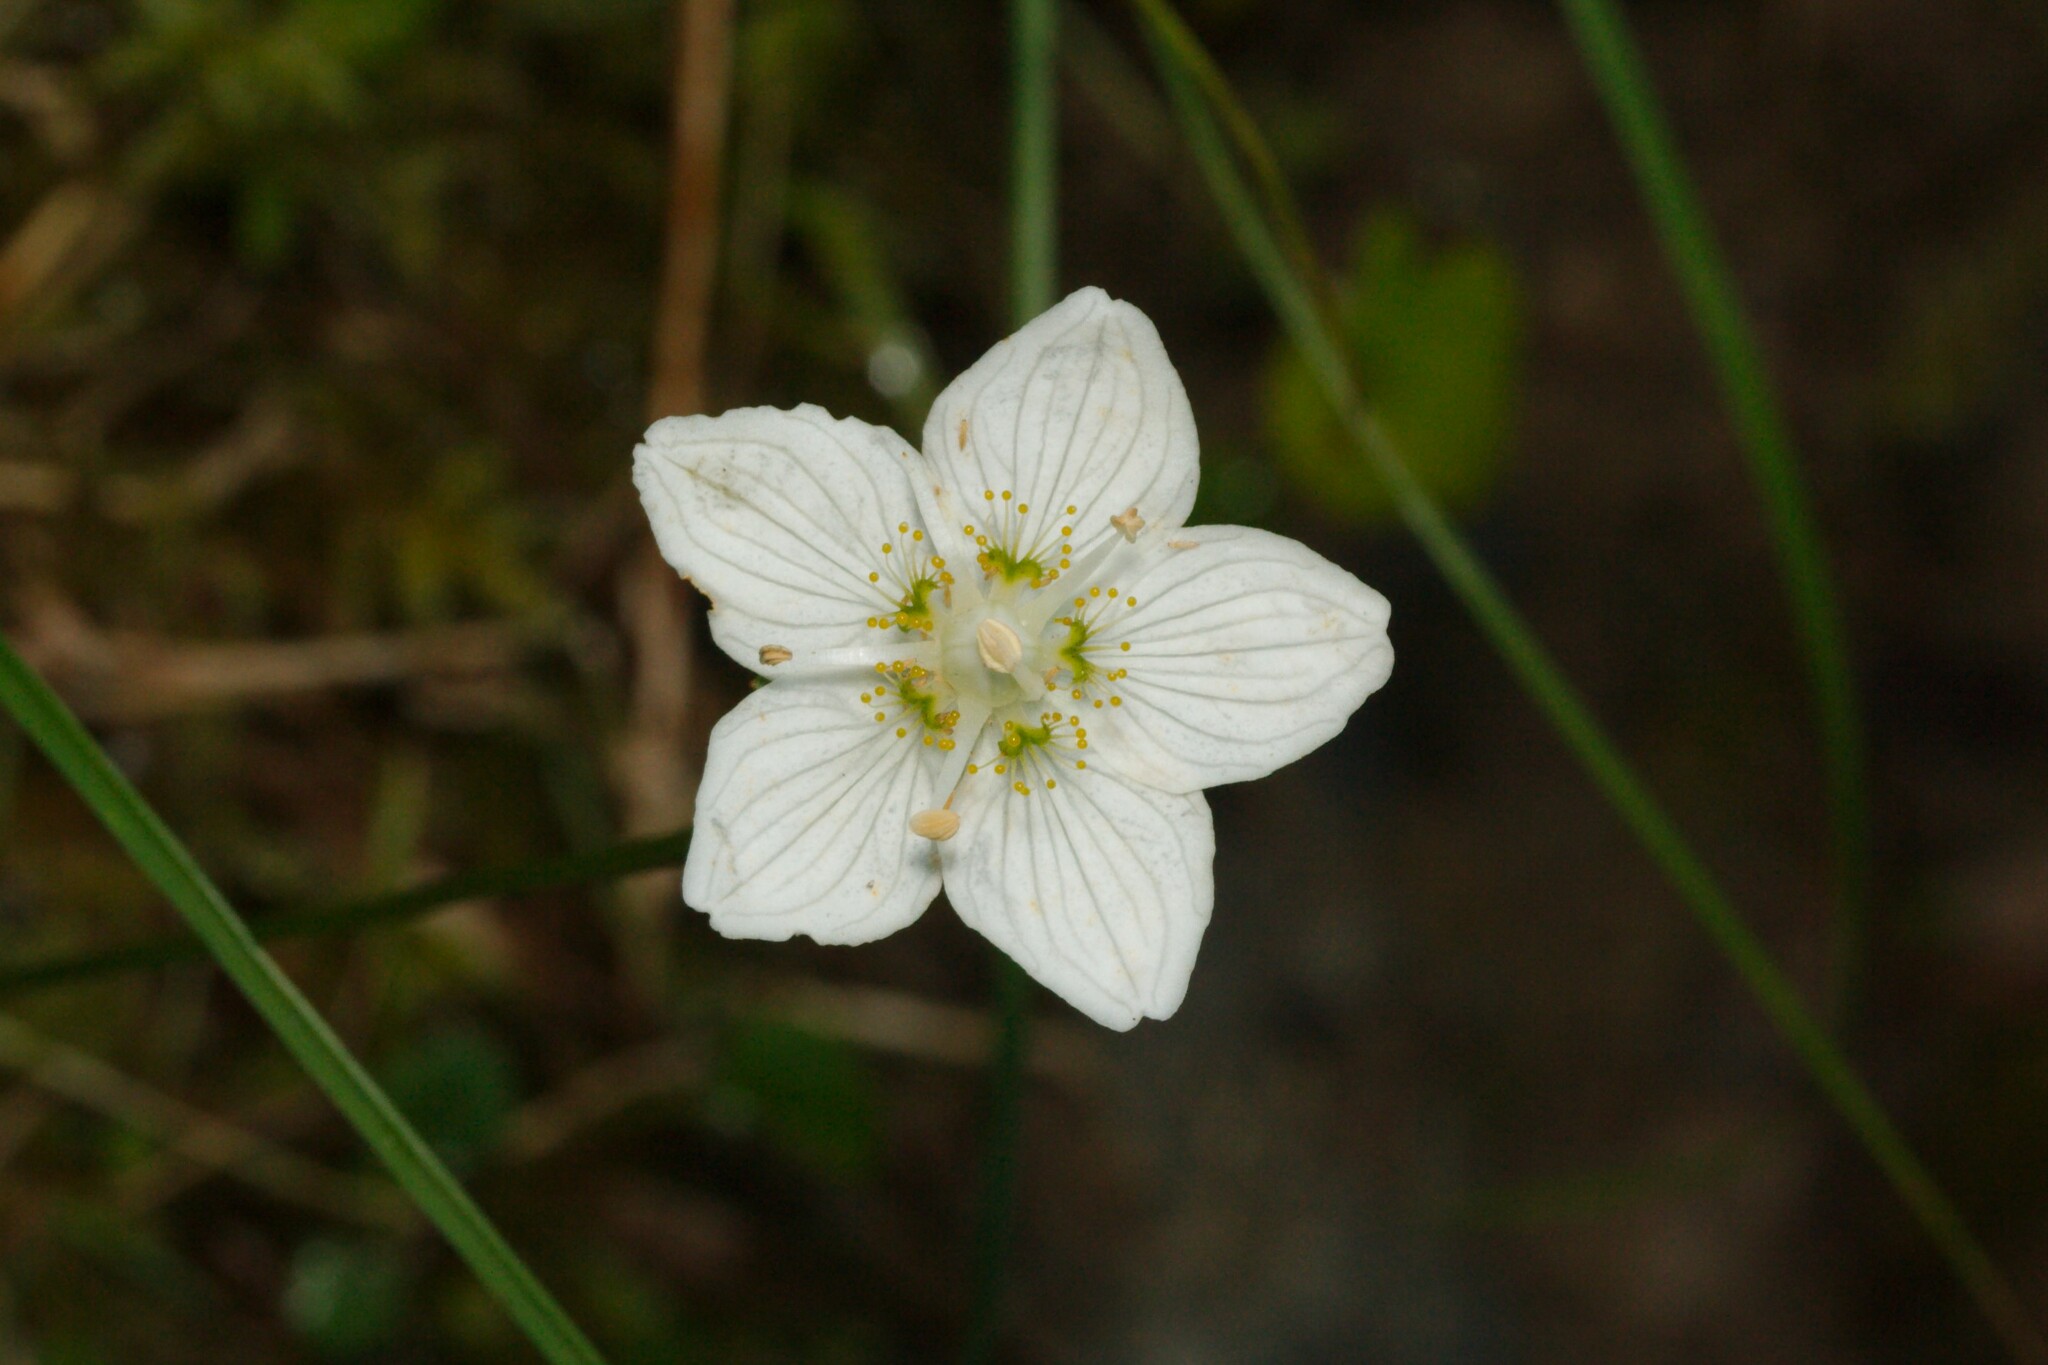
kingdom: Plantae
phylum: Tracheophyta
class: Magnoliopsida
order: Celastrales
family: Parnassiaceae
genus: Parnassia
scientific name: Parnassia palustris
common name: Grass-of-parnassus
